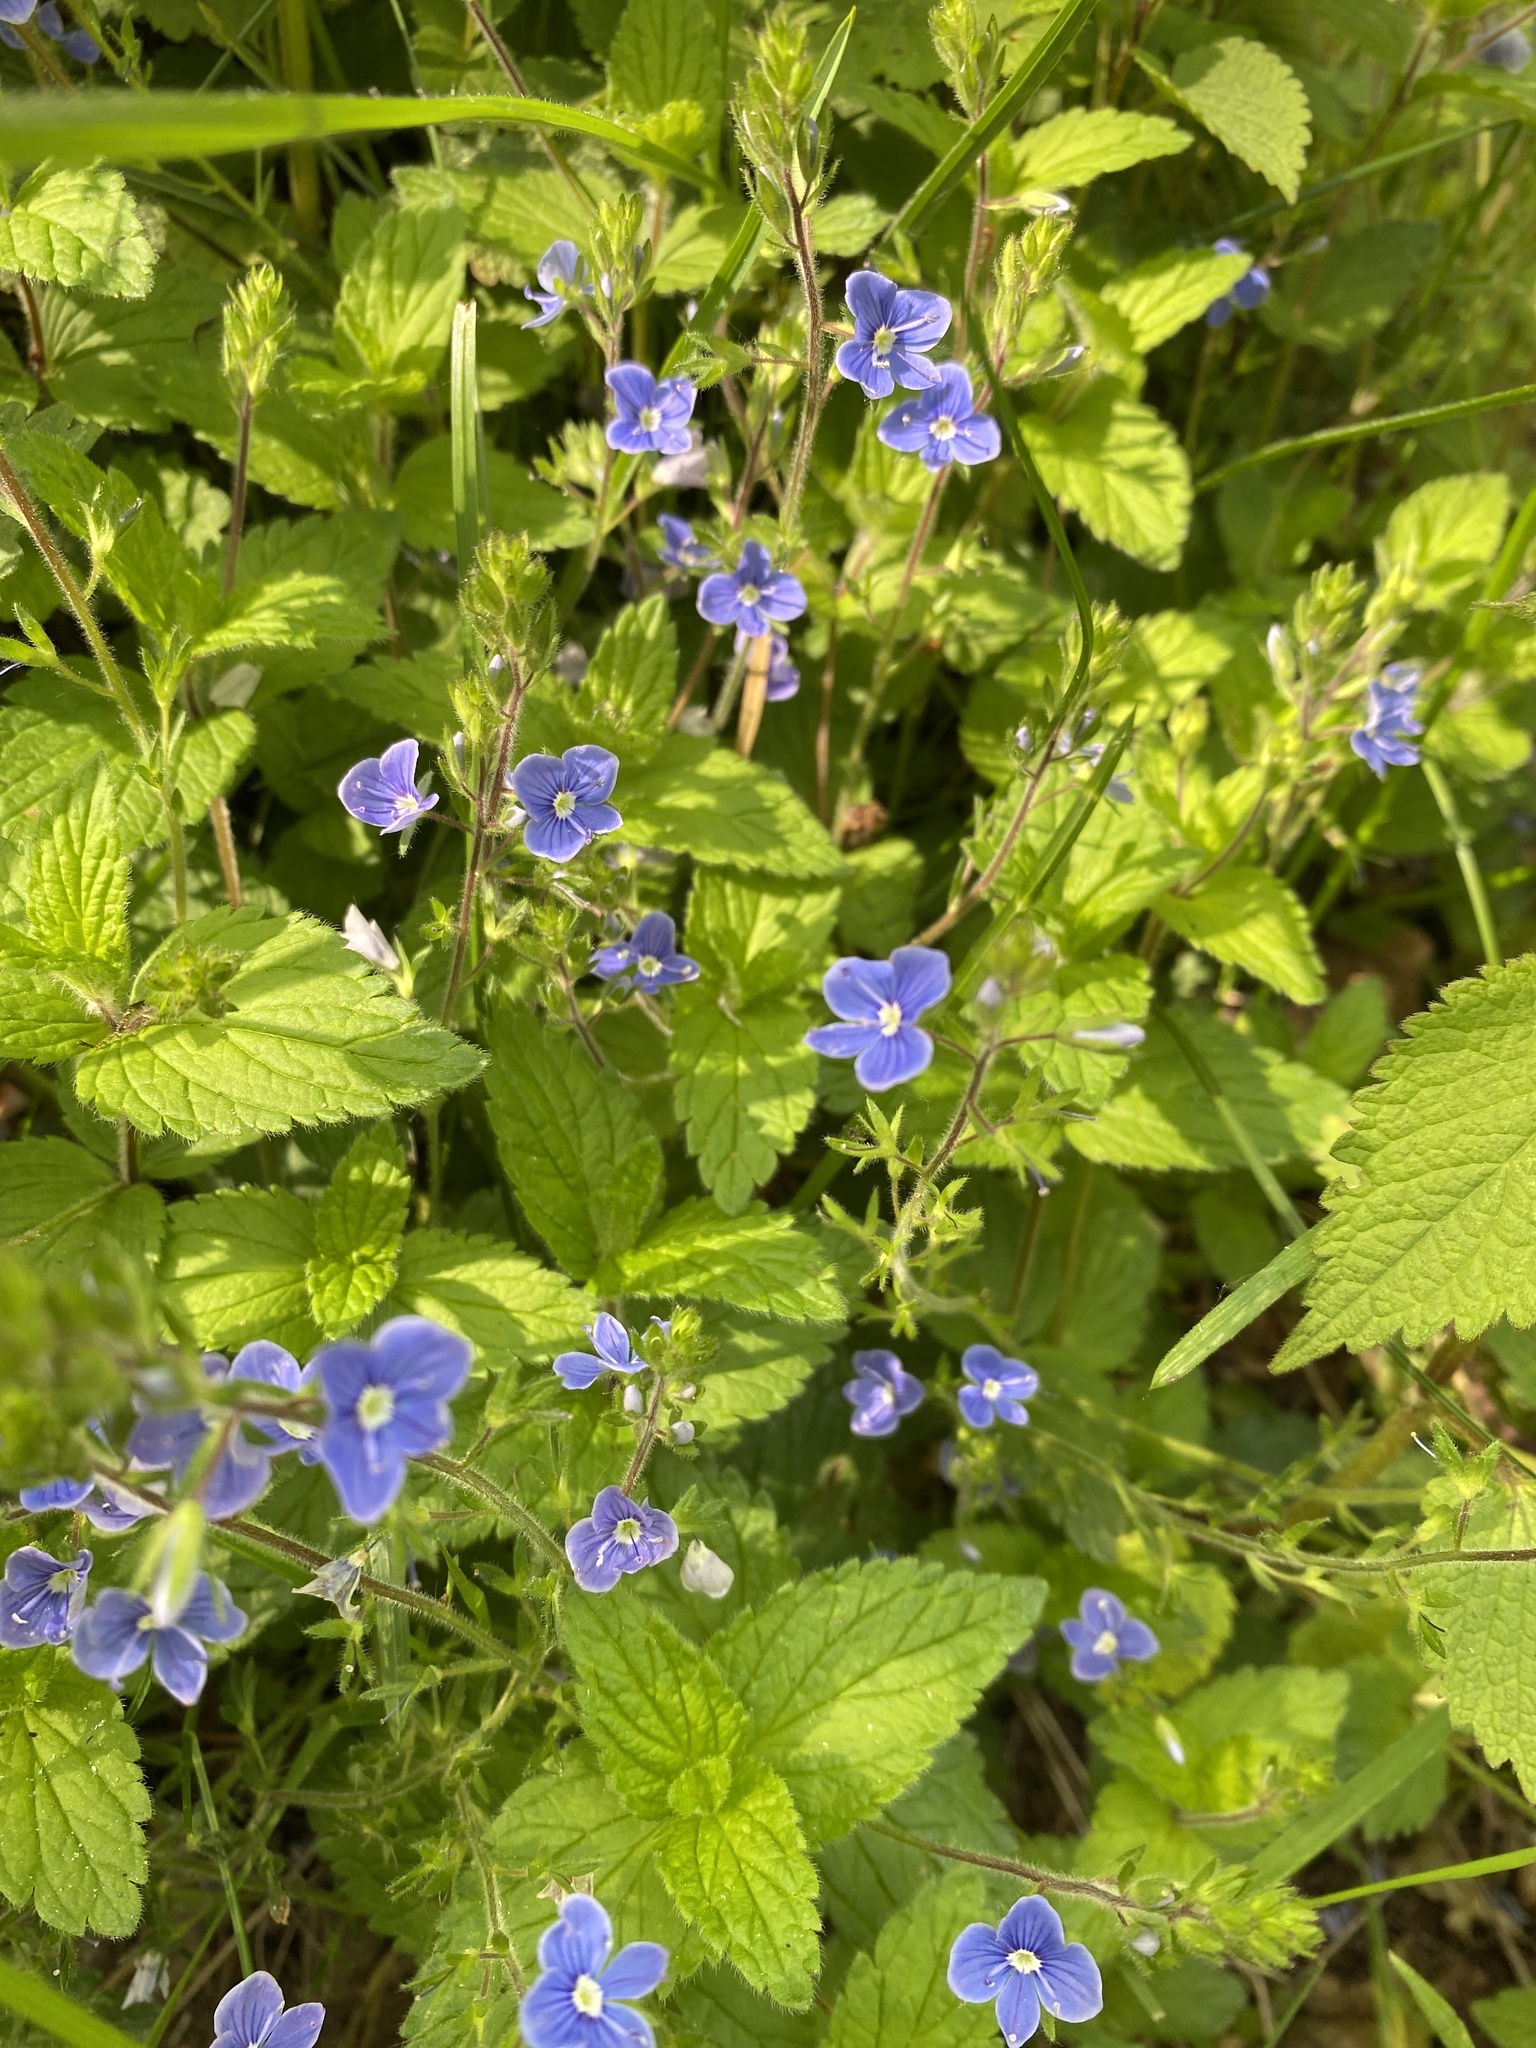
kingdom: Plantae
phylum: Tracheophyta
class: Magnoliopsida
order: Lamiales
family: Plantaginaceae
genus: Veronica
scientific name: Veronica chamaedrys
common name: Germander speedwell
